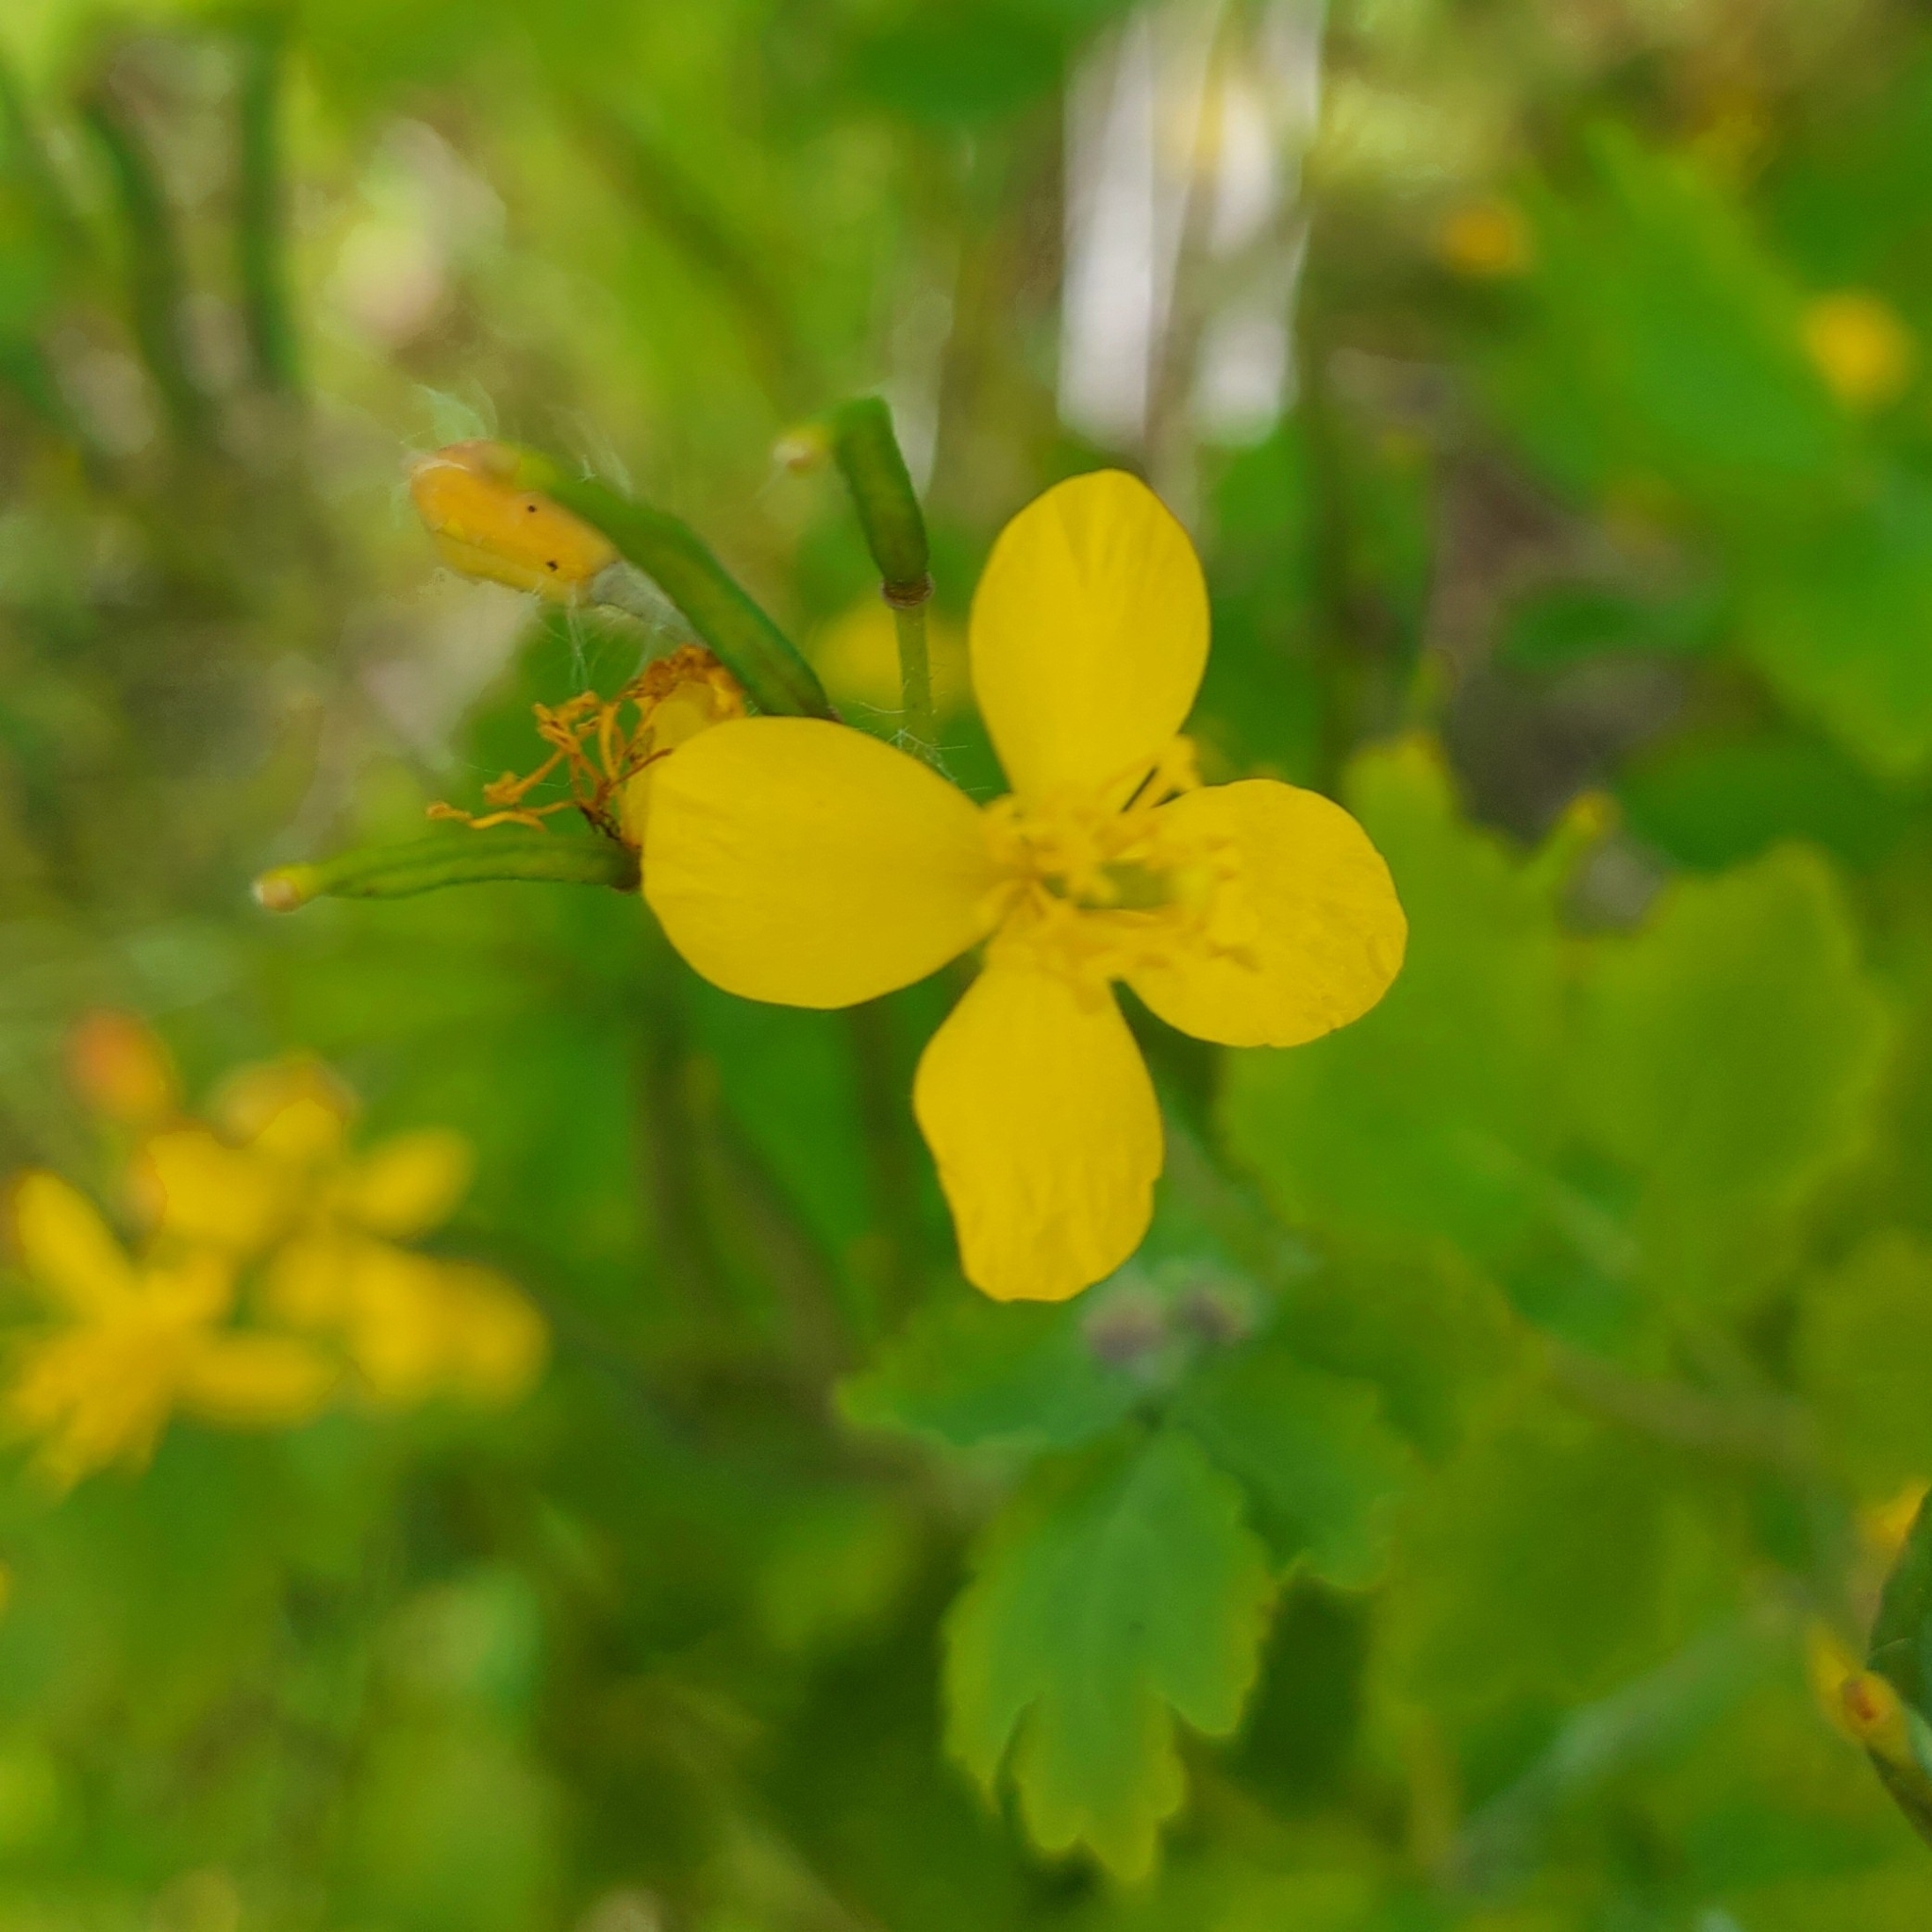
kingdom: Plantae
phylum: Tracheophyta
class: Magnoliopsida
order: Ranunculales
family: Papaveraceae
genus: Chelidonium
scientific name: Chelidonium majus
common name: Greater celandine
